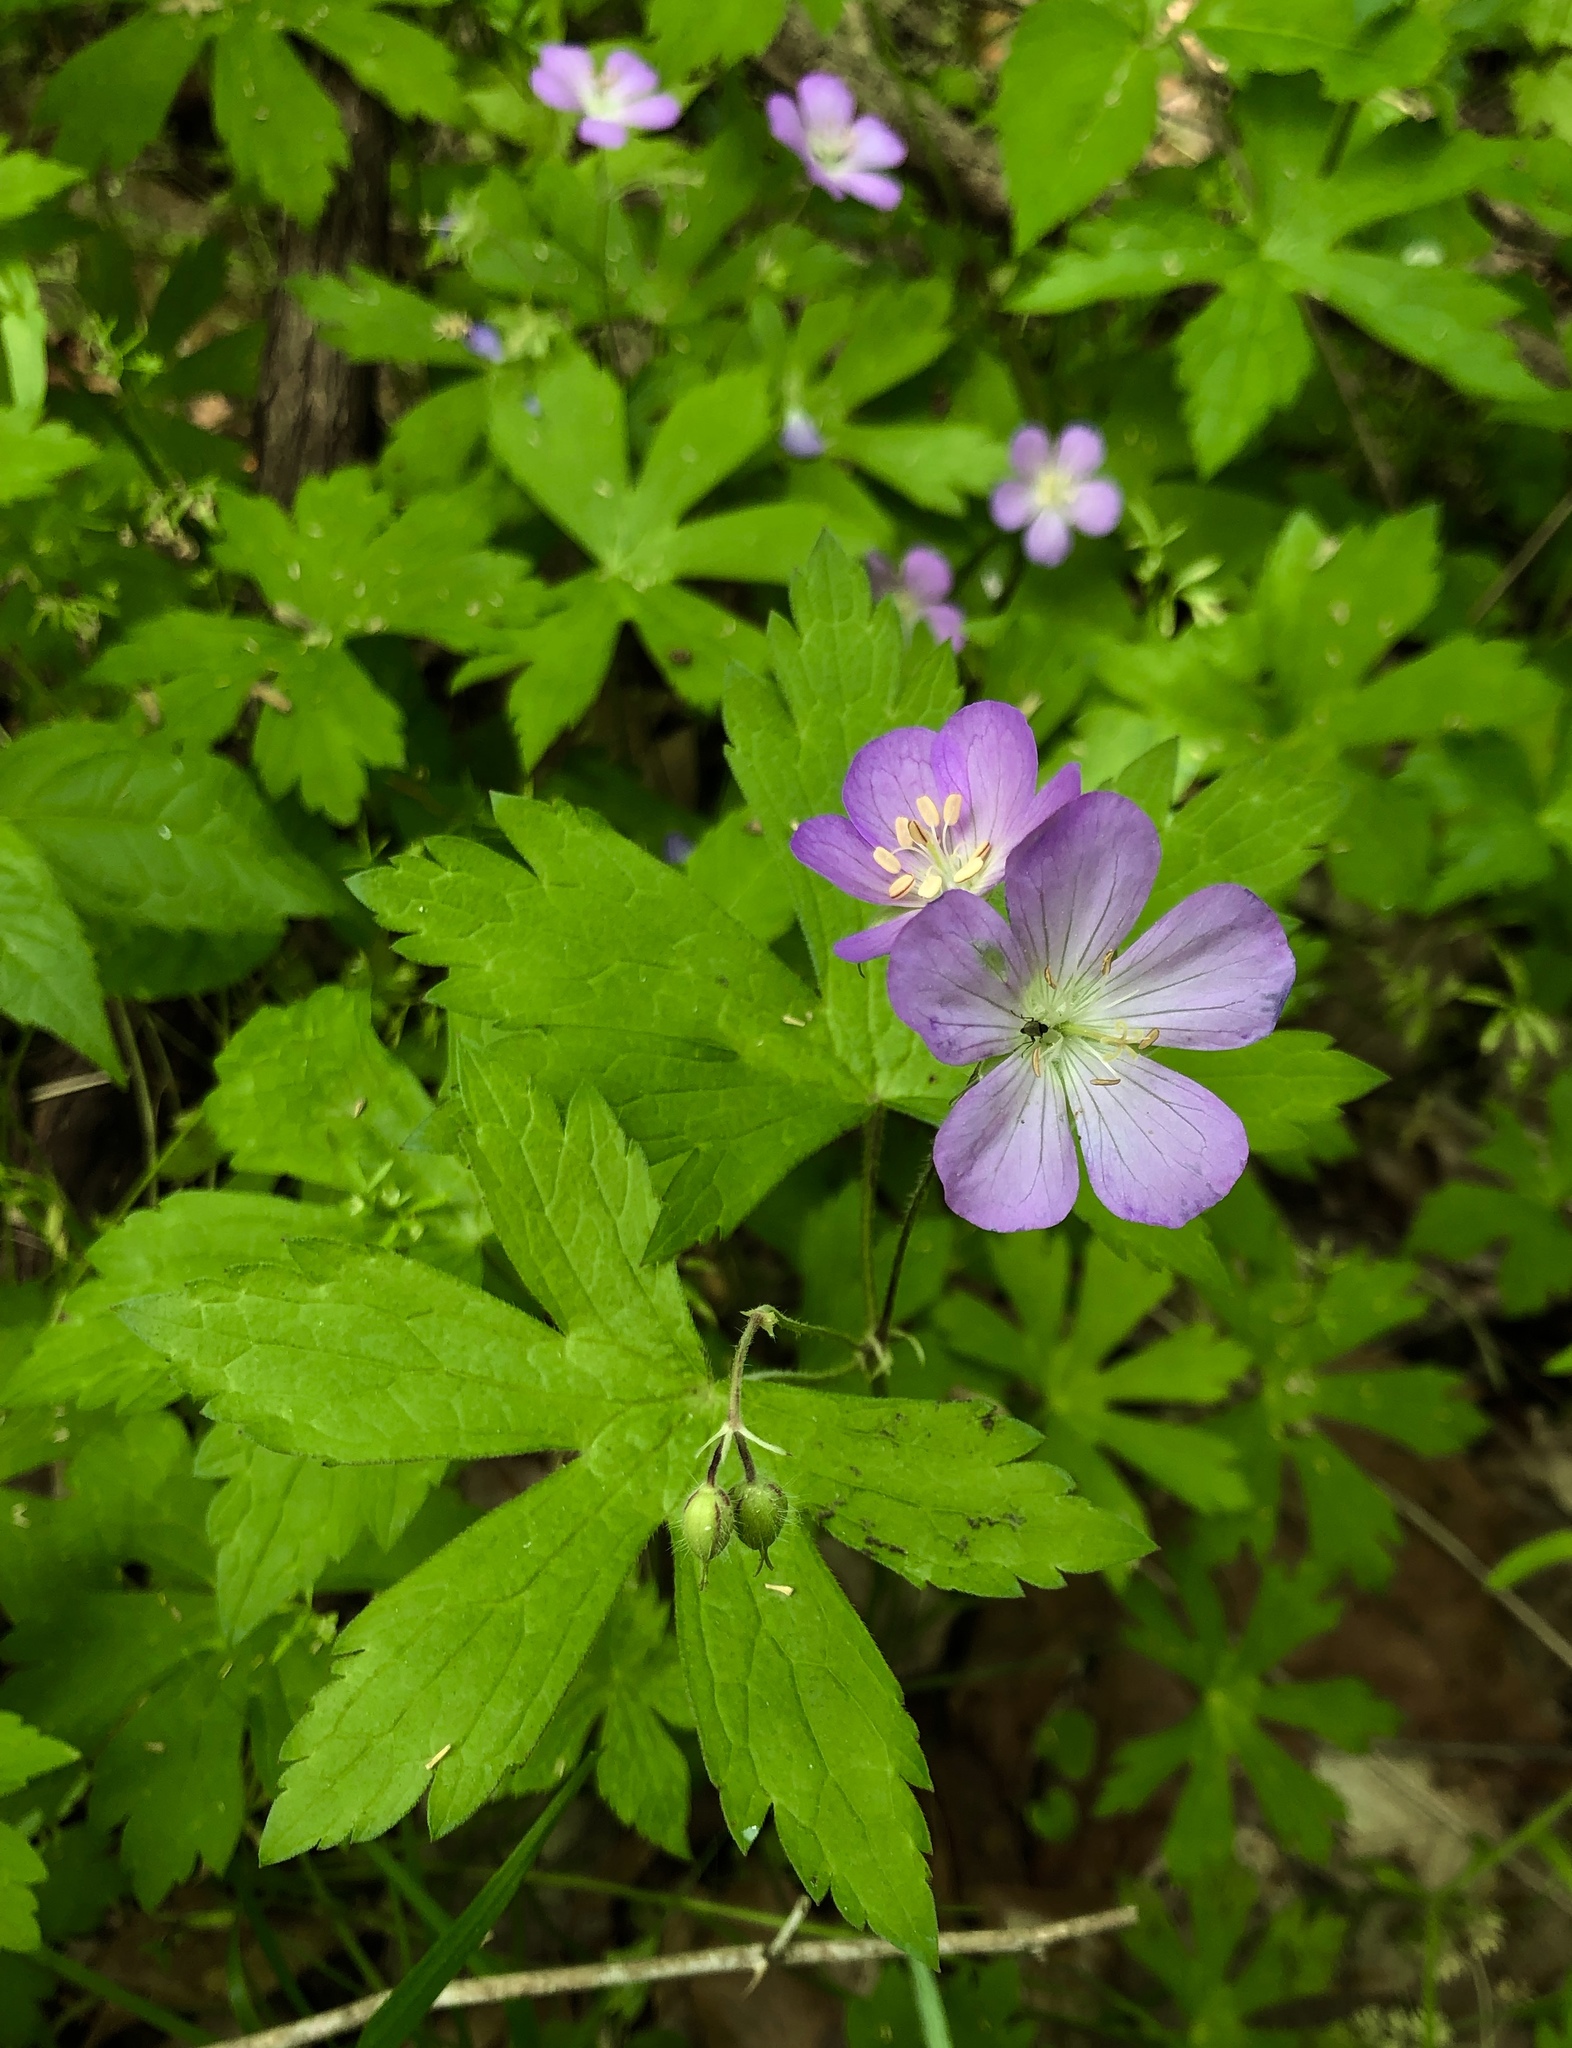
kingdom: Plantae
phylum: Tracheophyta
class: Magnoliopsida
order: Geraniales
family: Geraniaceae
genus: Geranium
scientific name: Geranium maculatum
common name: Spotted geranium
